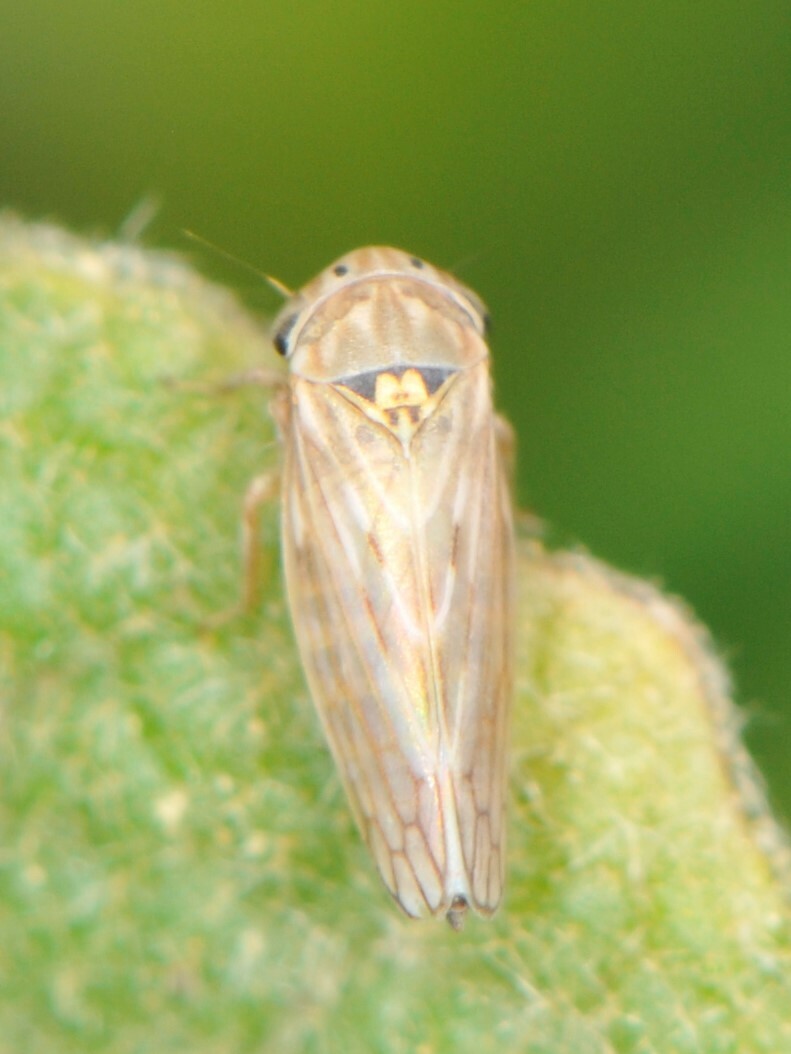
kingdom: Animalia
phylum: Arthropoda
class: Insecta
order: Hemiptera
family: Cicadellidae
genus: Ceratagallia
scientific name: Ceratagallia
